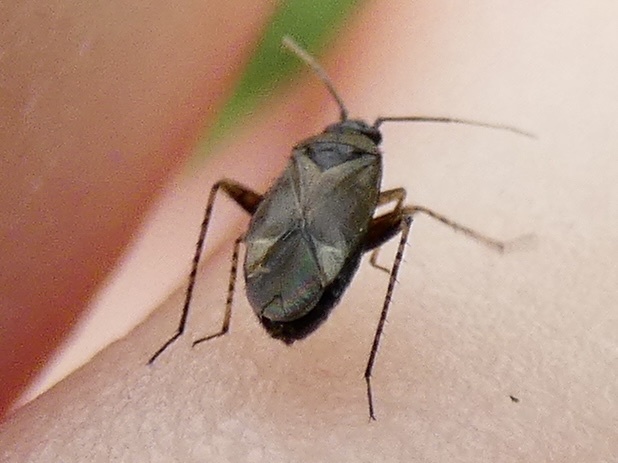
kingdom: Animalia
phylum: Arthropoda
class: Insecta
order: Hemiptera
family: Miridae
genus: Plagiognathus
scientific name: Plagiognathus arbustorum
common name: Plant bug
